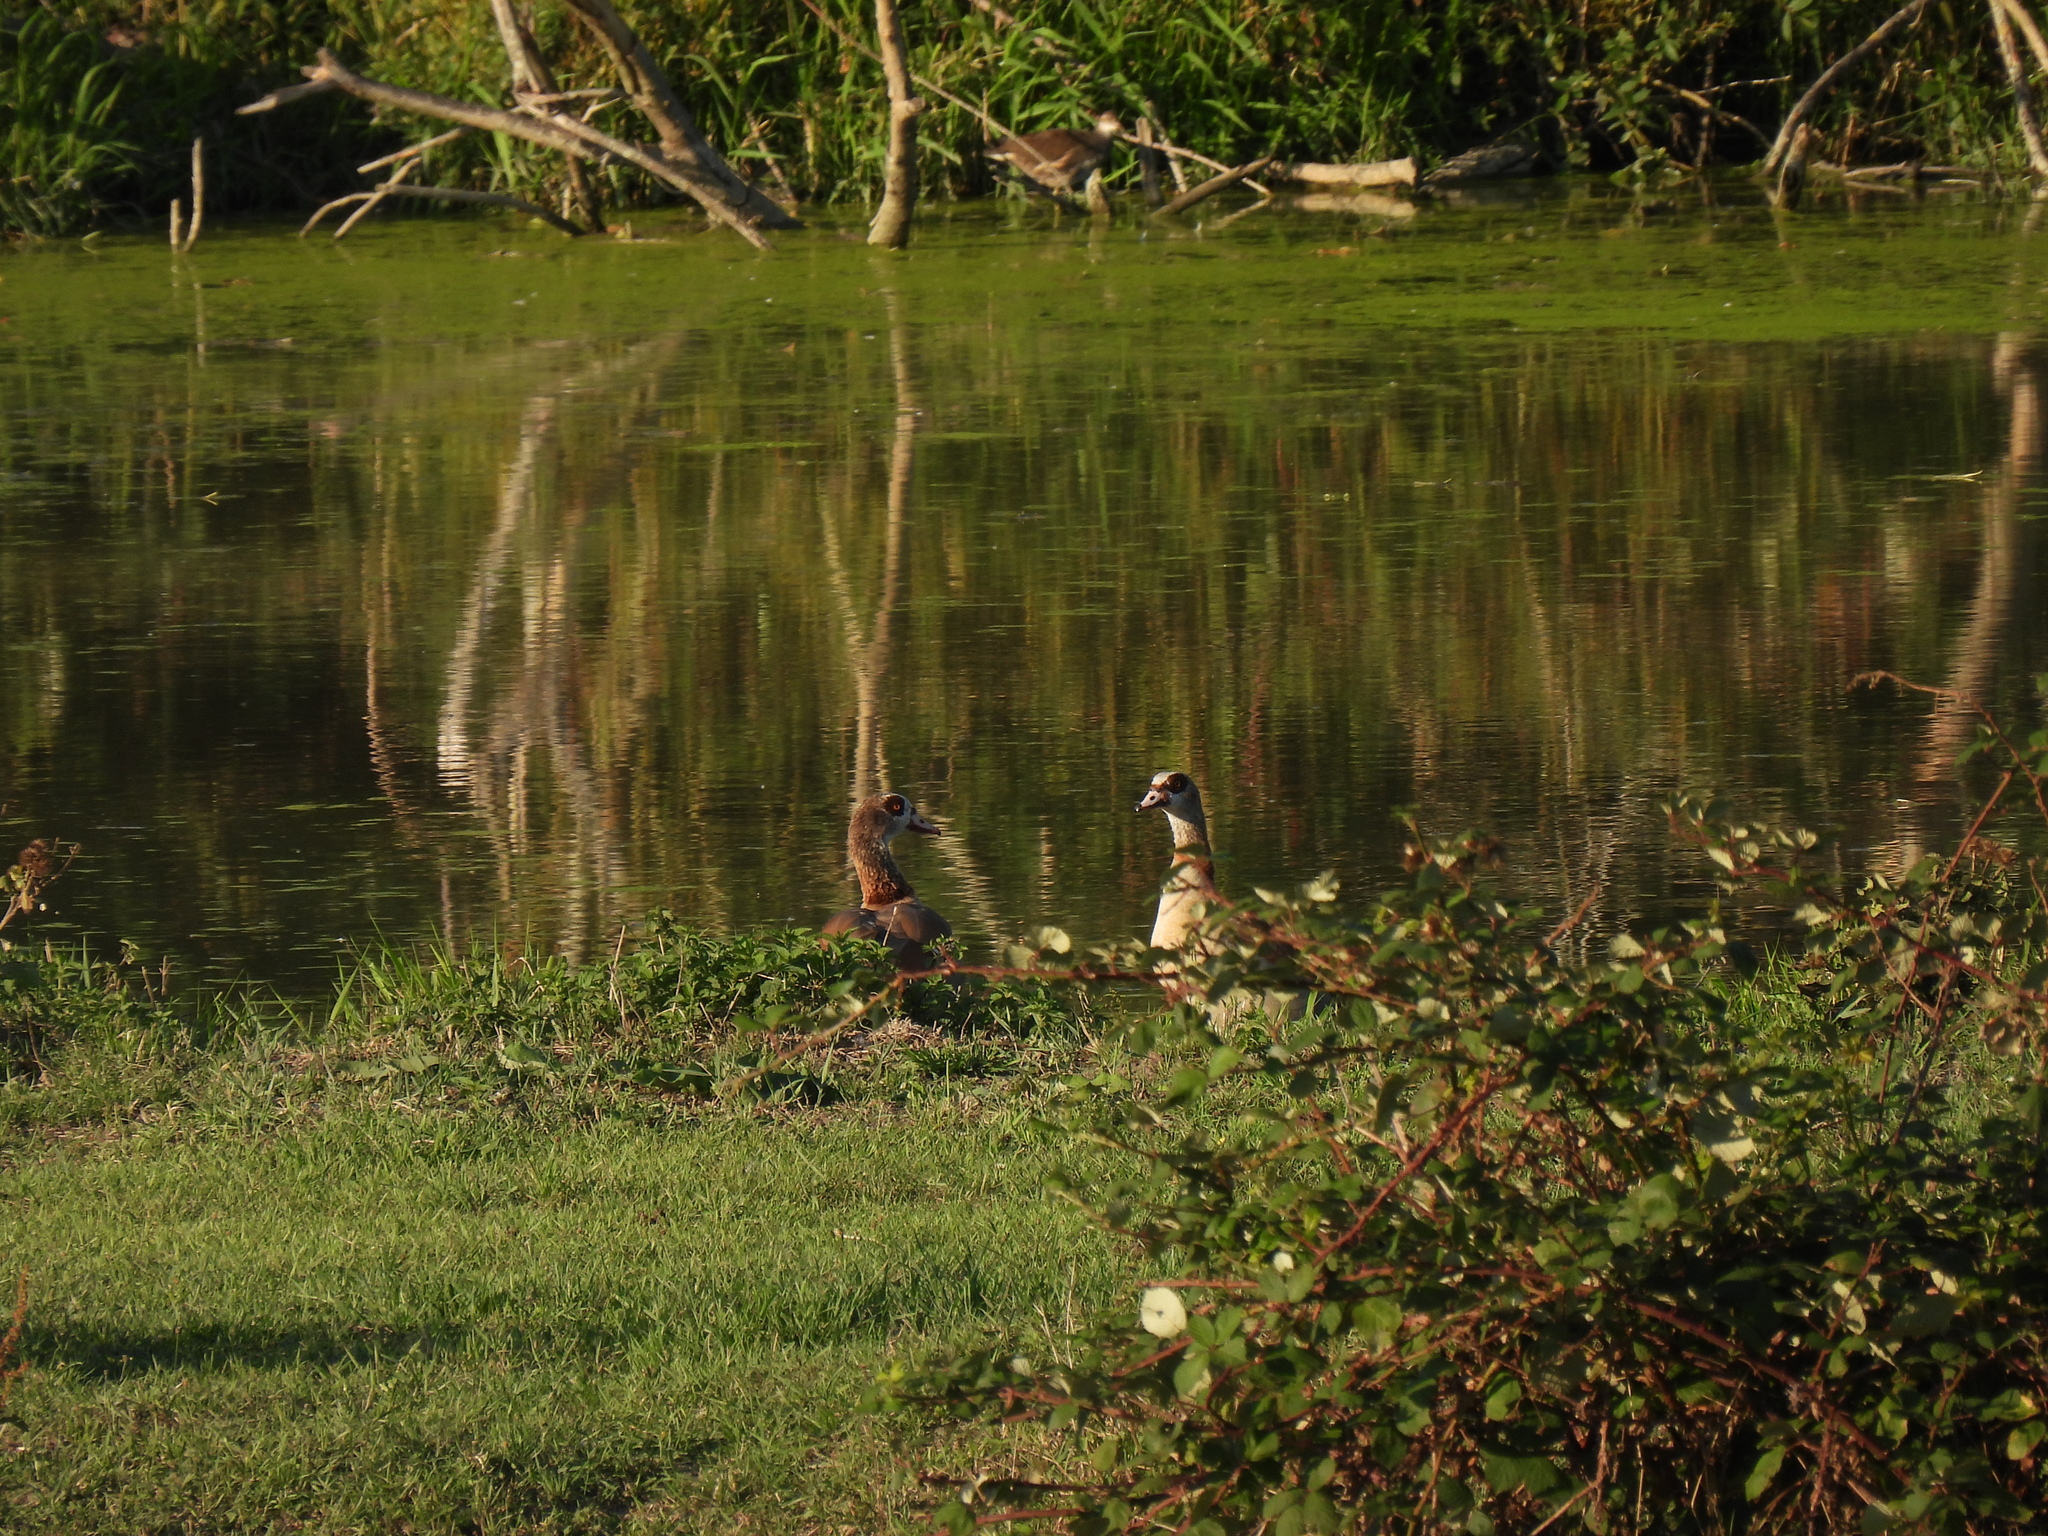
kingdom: Animalia
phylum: Chordata
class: Aves
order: Anseriformes
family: Anatidae
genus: Alopochen
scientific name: Alopochen aegyptiaca
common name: Egyptian goose
